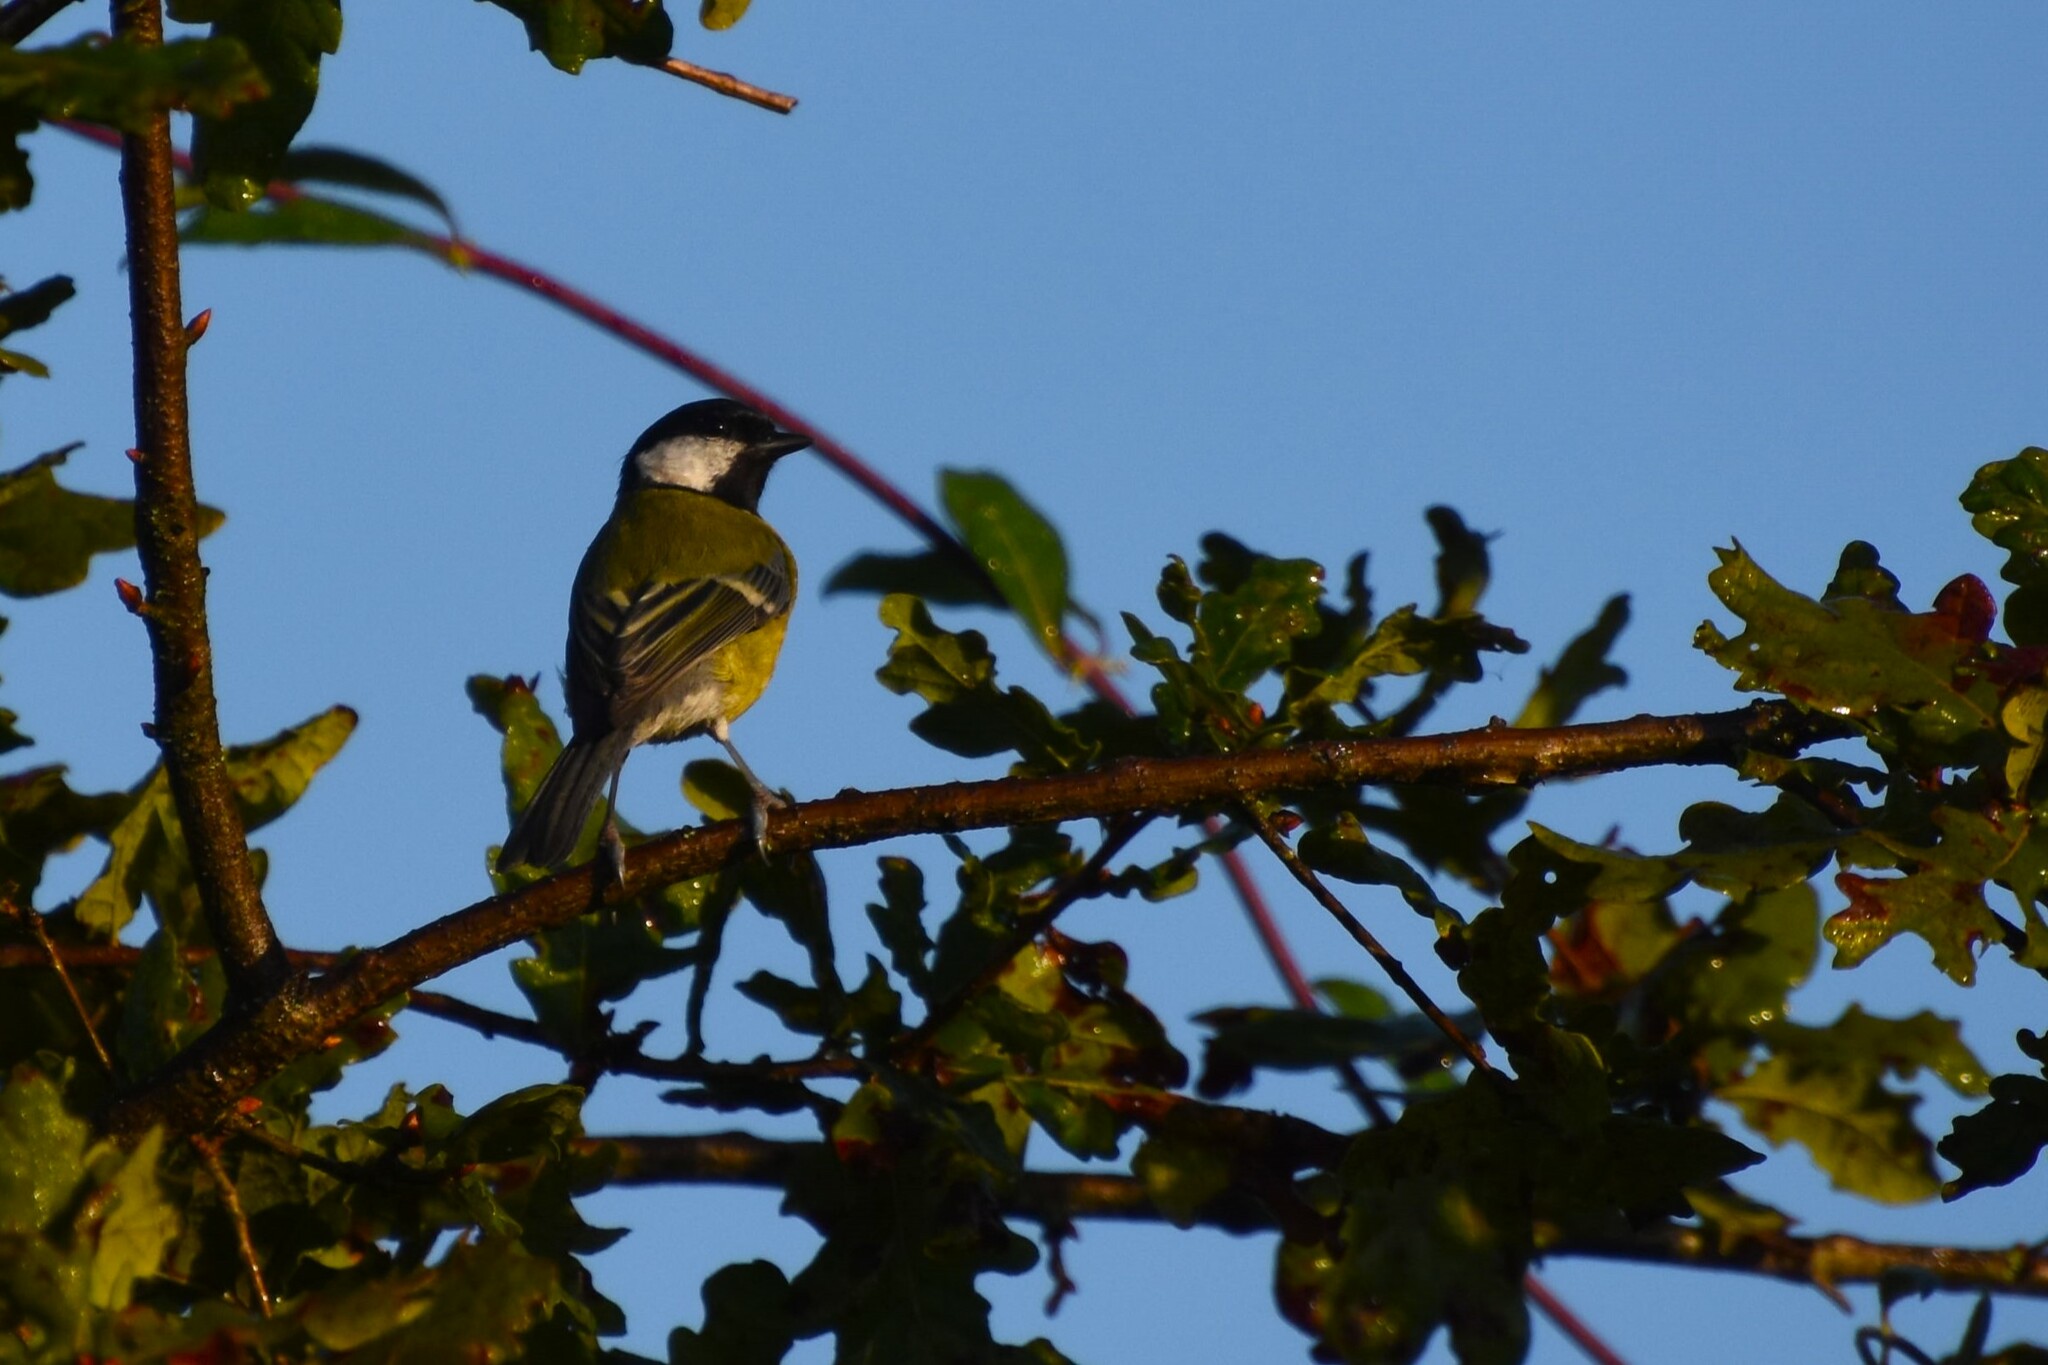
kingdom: Animalia
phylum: Chordata
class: Aves
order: Passeriformes
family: Paridae
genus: Parus
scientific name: Parus major
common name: Great tit
